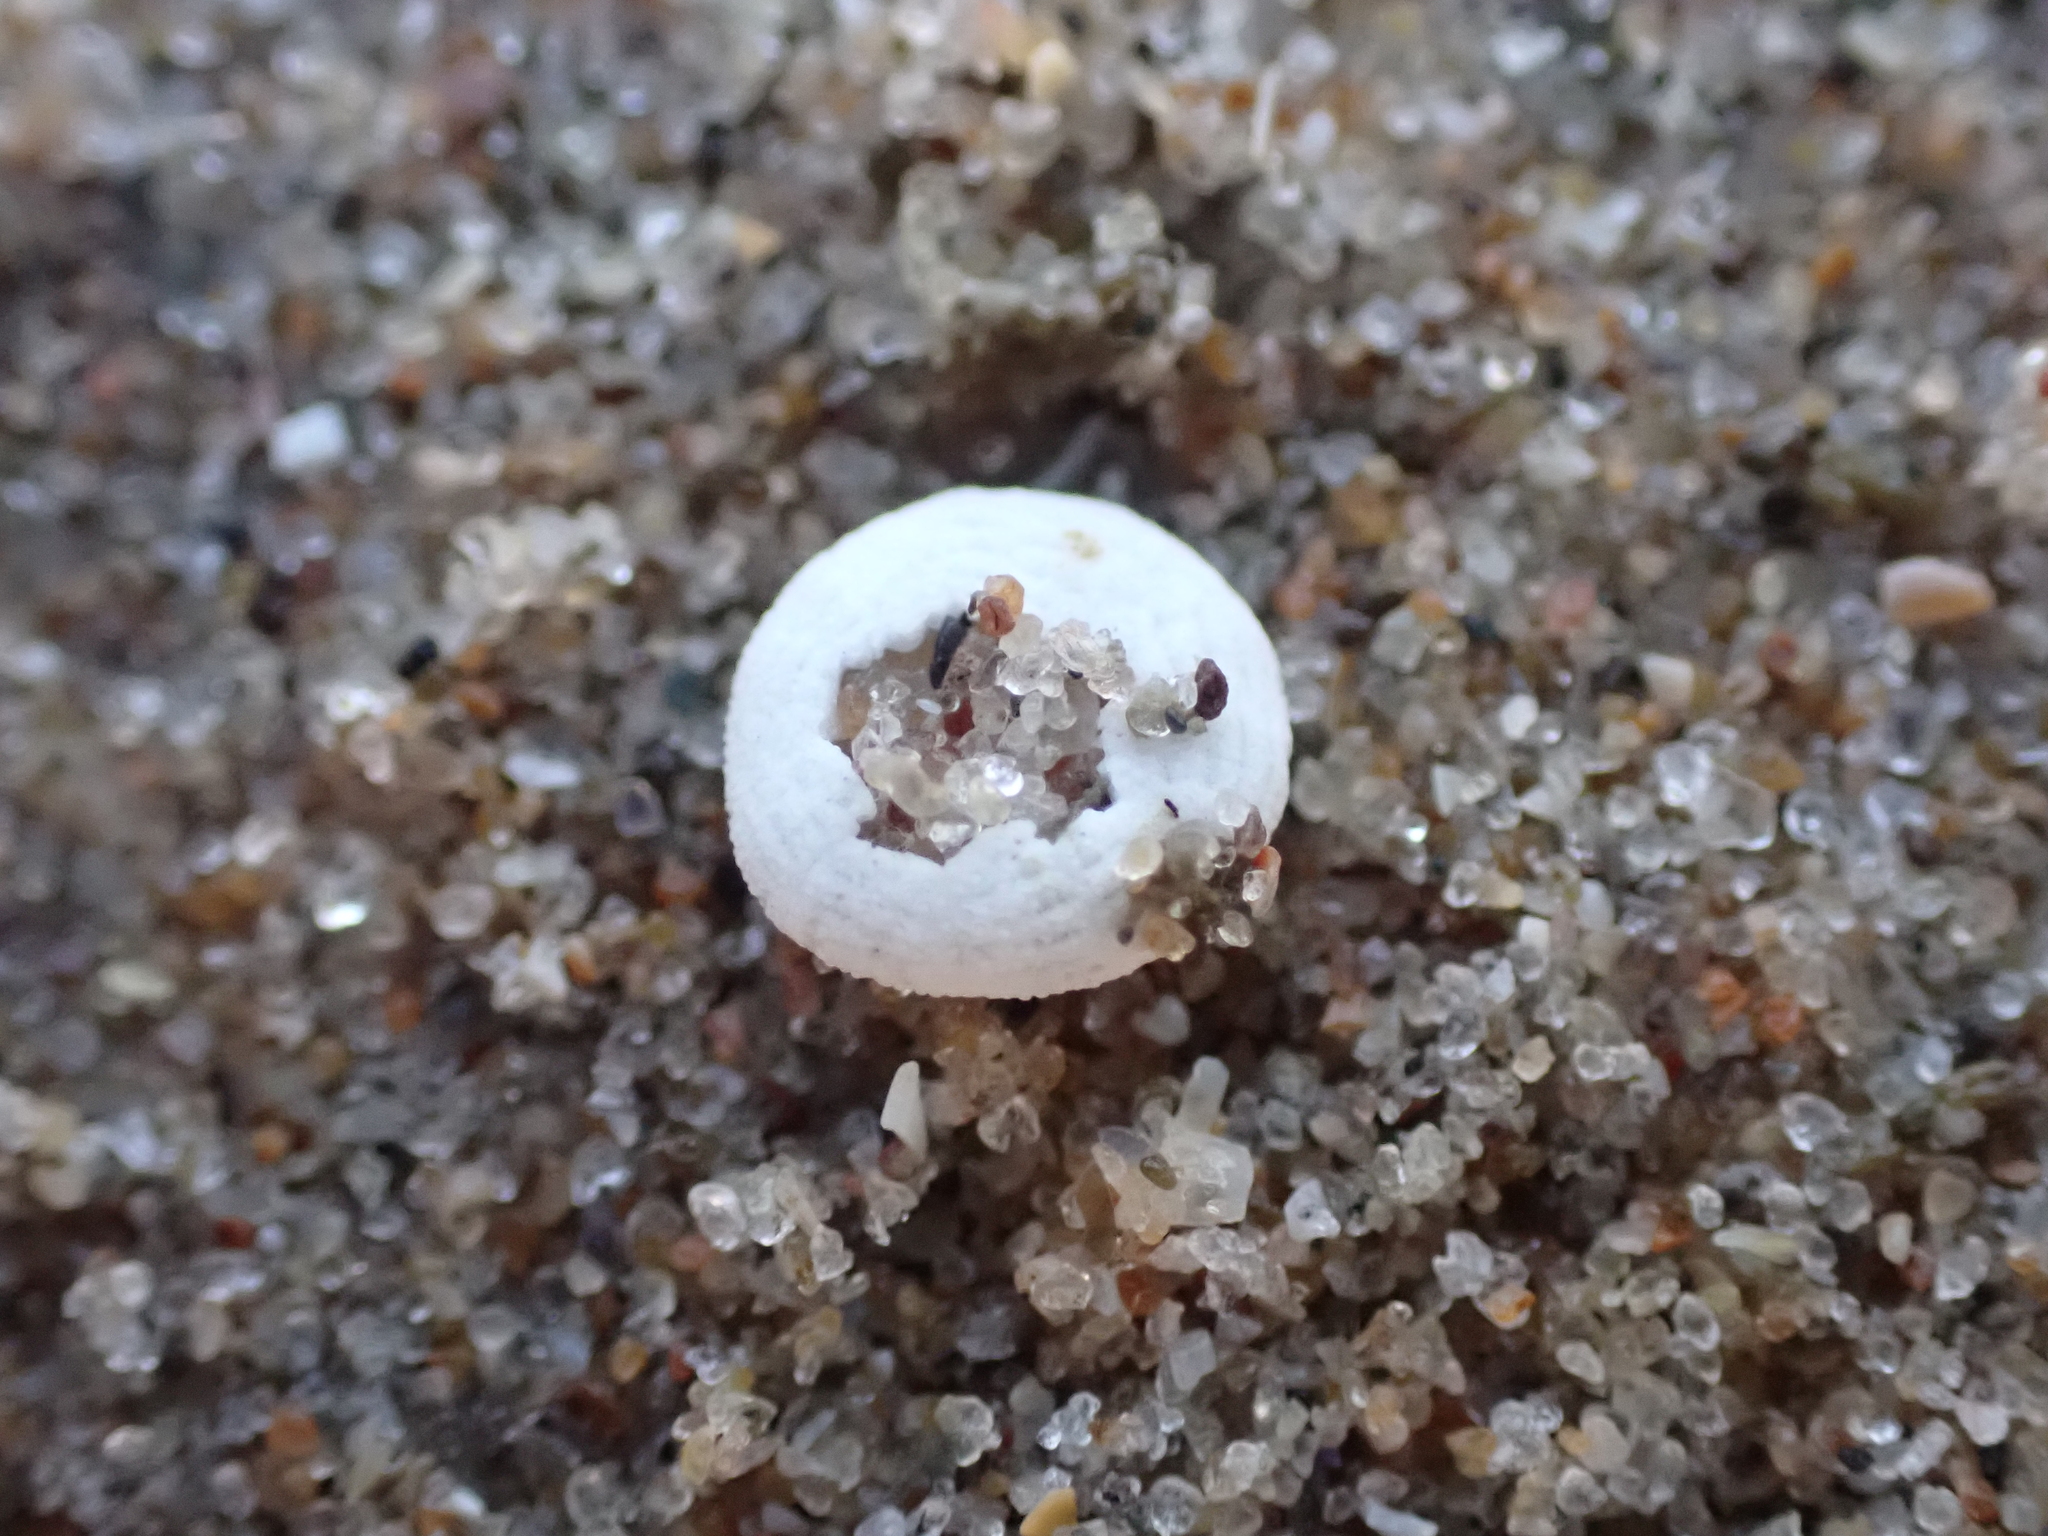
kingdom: Animalia
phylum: Echinodermata
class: Echinoidea
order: Echinolampadacea
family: Fibulariidae
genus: Echinocyamus
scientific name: Echinocyamus pusillus
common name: Broad beau of sea
